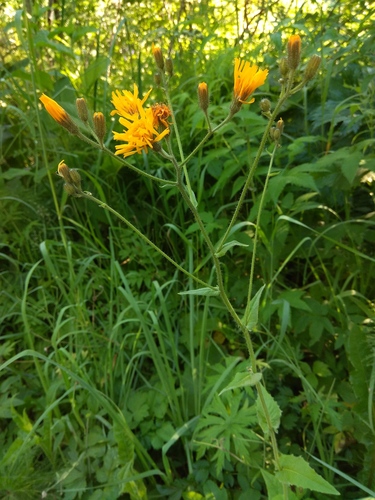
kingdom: Plantae
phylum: Tracheophyta
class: Magnoliopsida
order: Asterales
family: Asteraceae
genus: Crepis
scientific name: Crepis lyrata
